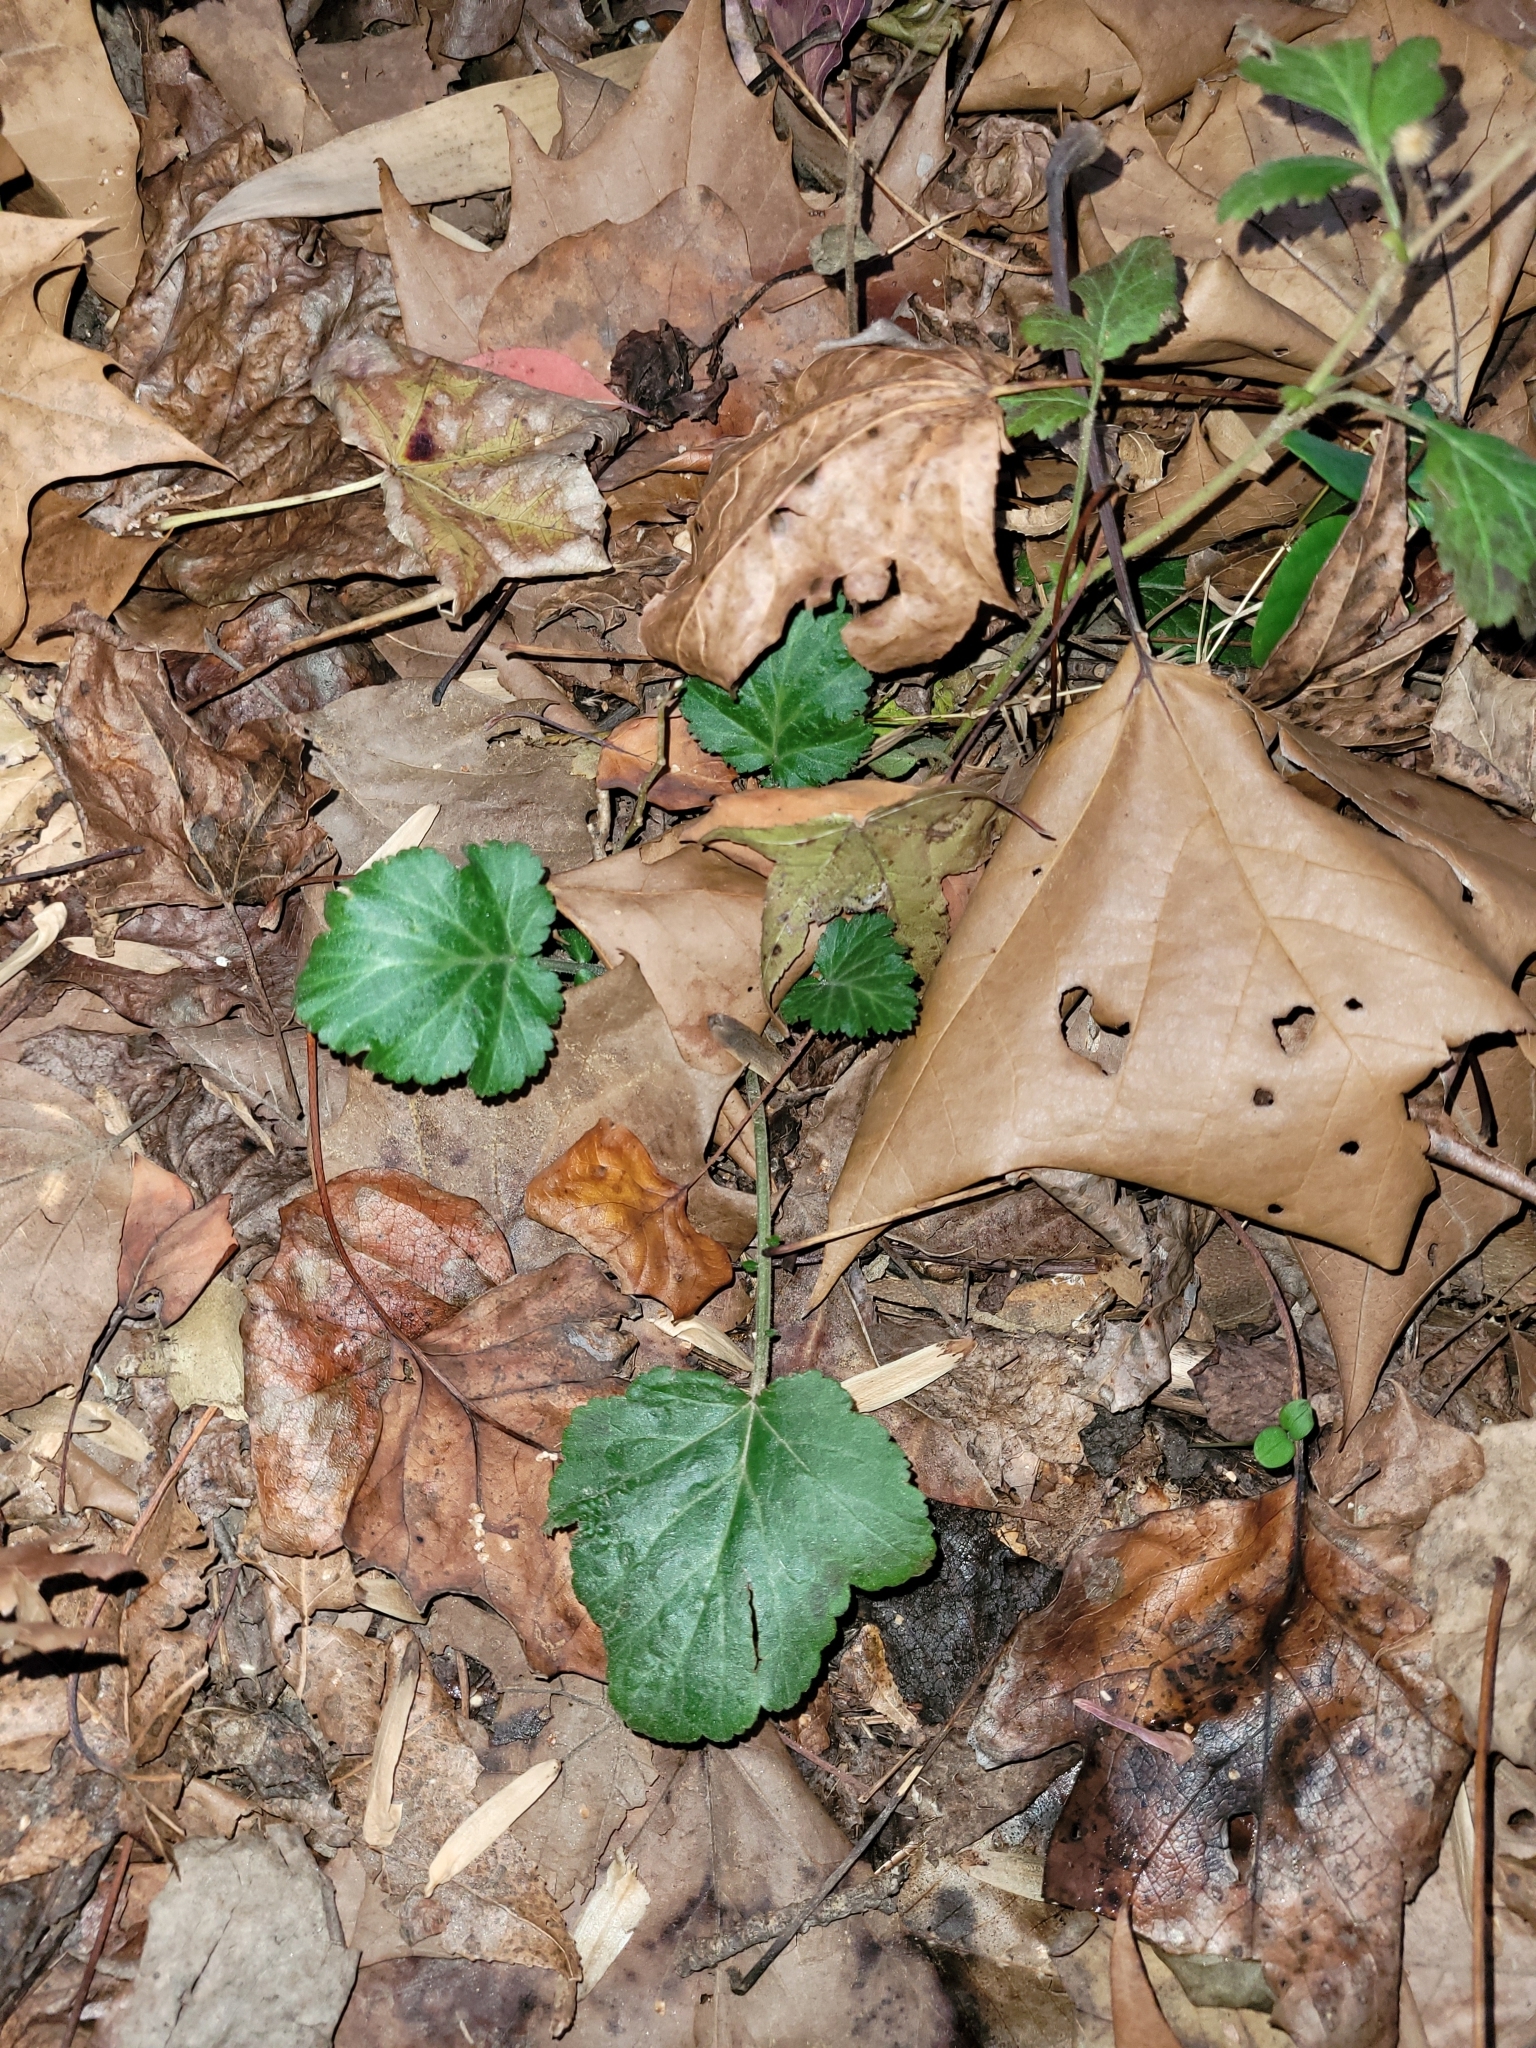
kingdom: Plantae
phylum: Tracheophyta
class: Magnoliopsida
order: Rosales
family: Rosaceae
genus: Geum
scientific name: Geum canadense
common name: White avens
